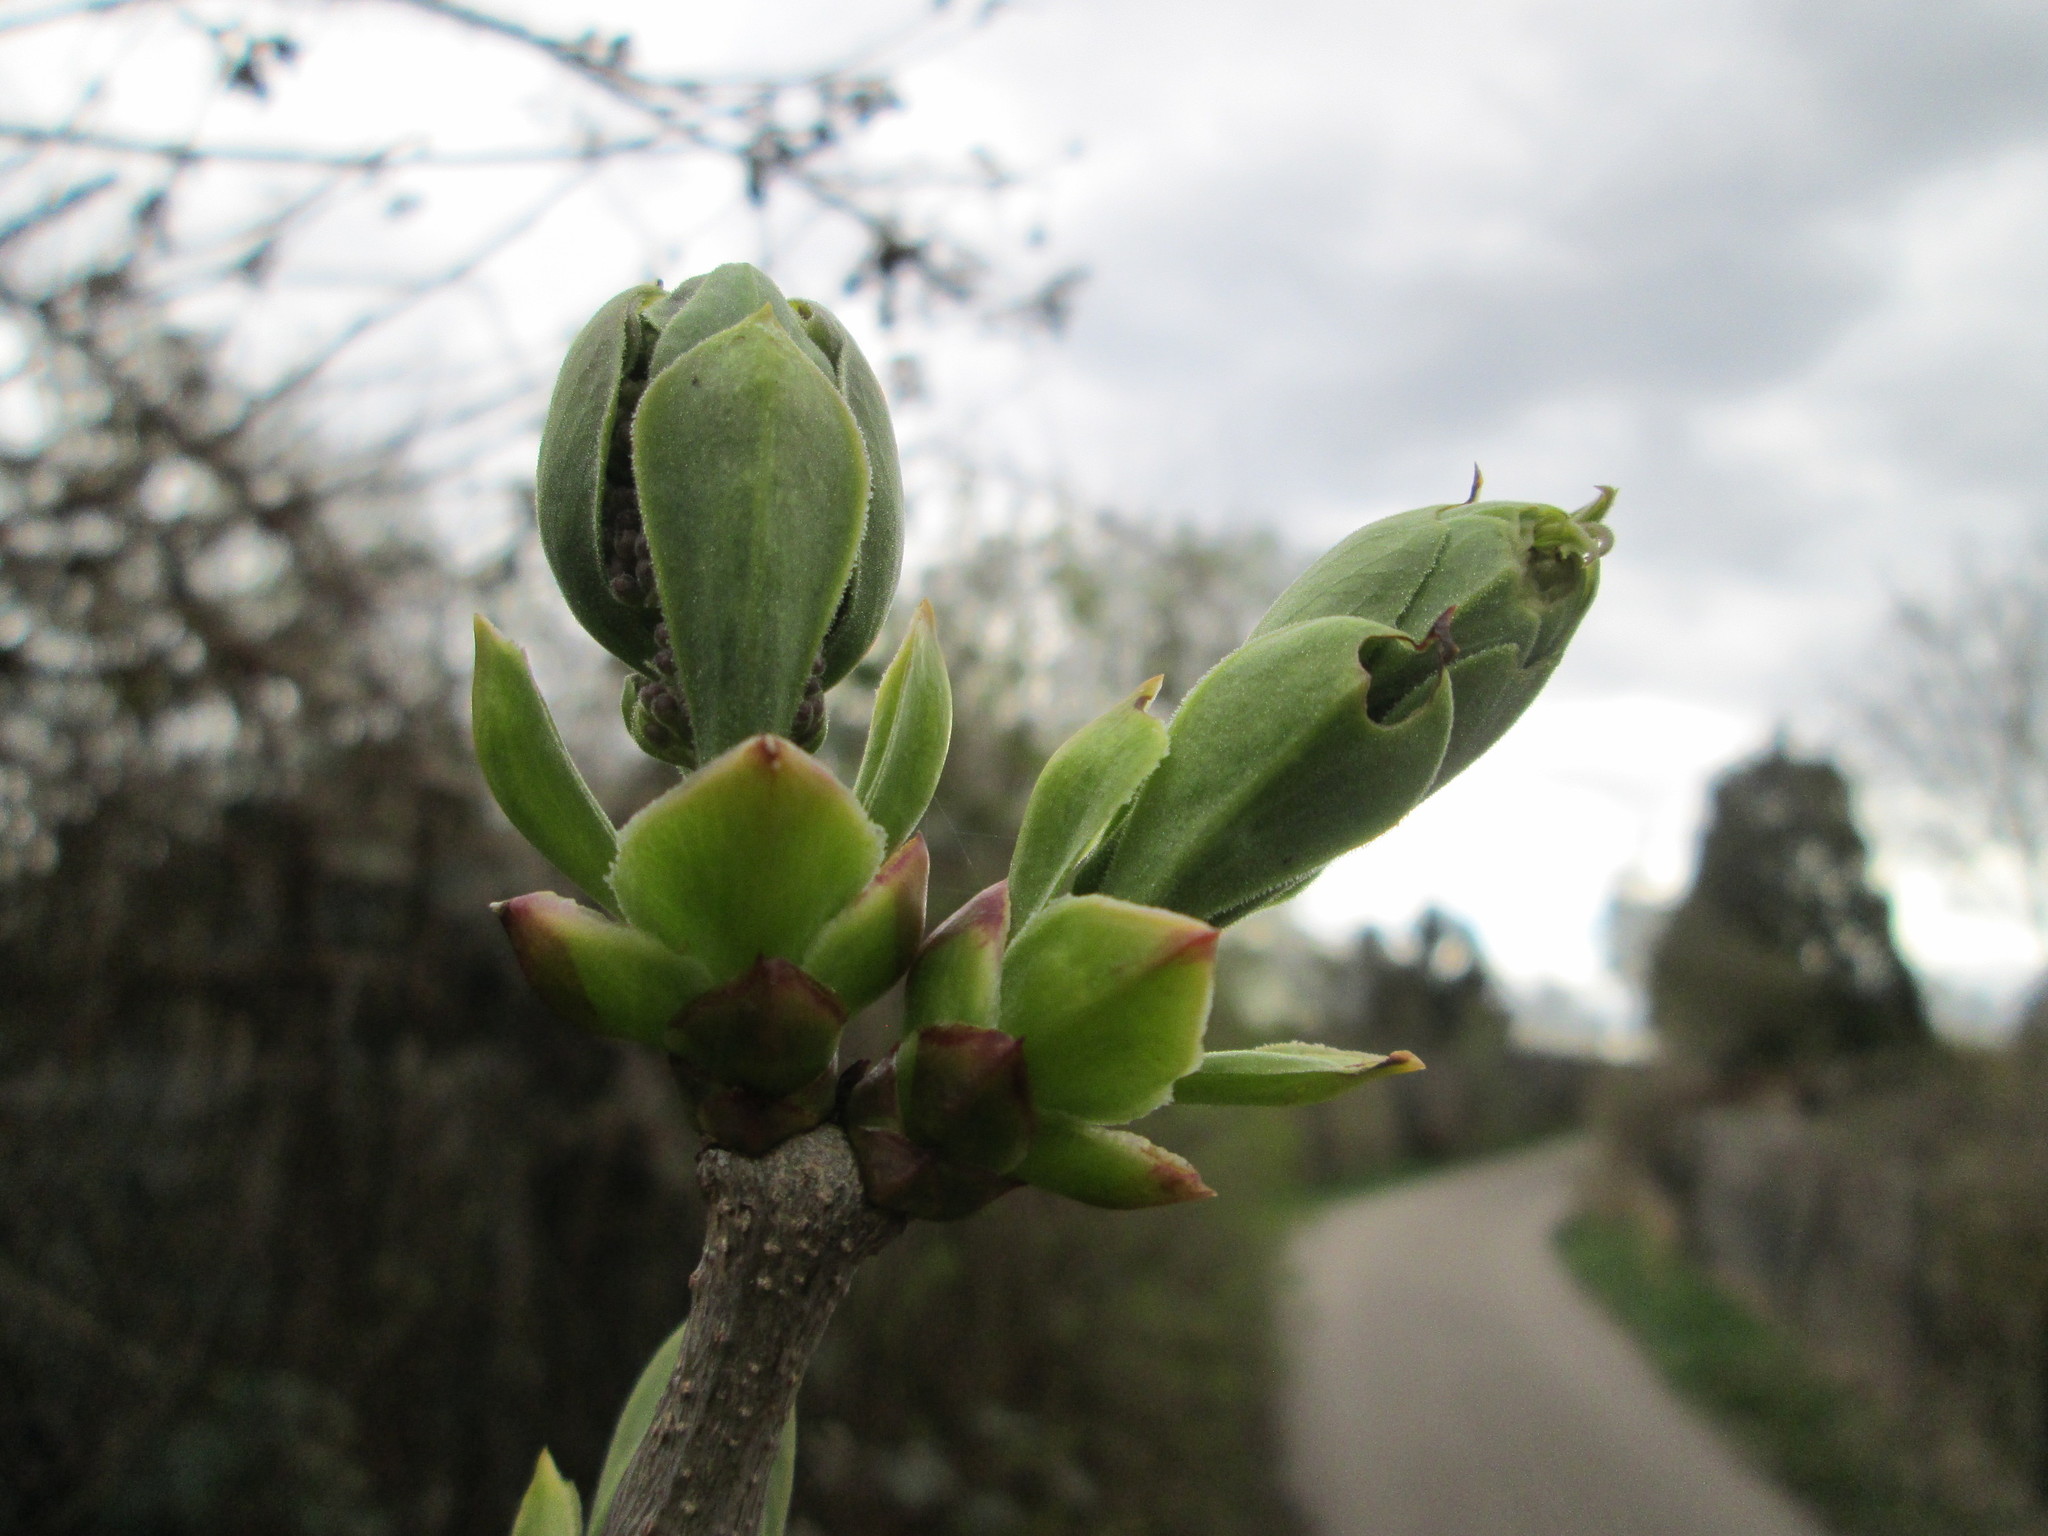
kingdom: Plantae
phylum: Tracheophyta
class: Magnoliopsida
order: Lamiales
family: Oleaceae
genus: Syringa
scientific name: Syringa vulgaris
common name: Common lilac
